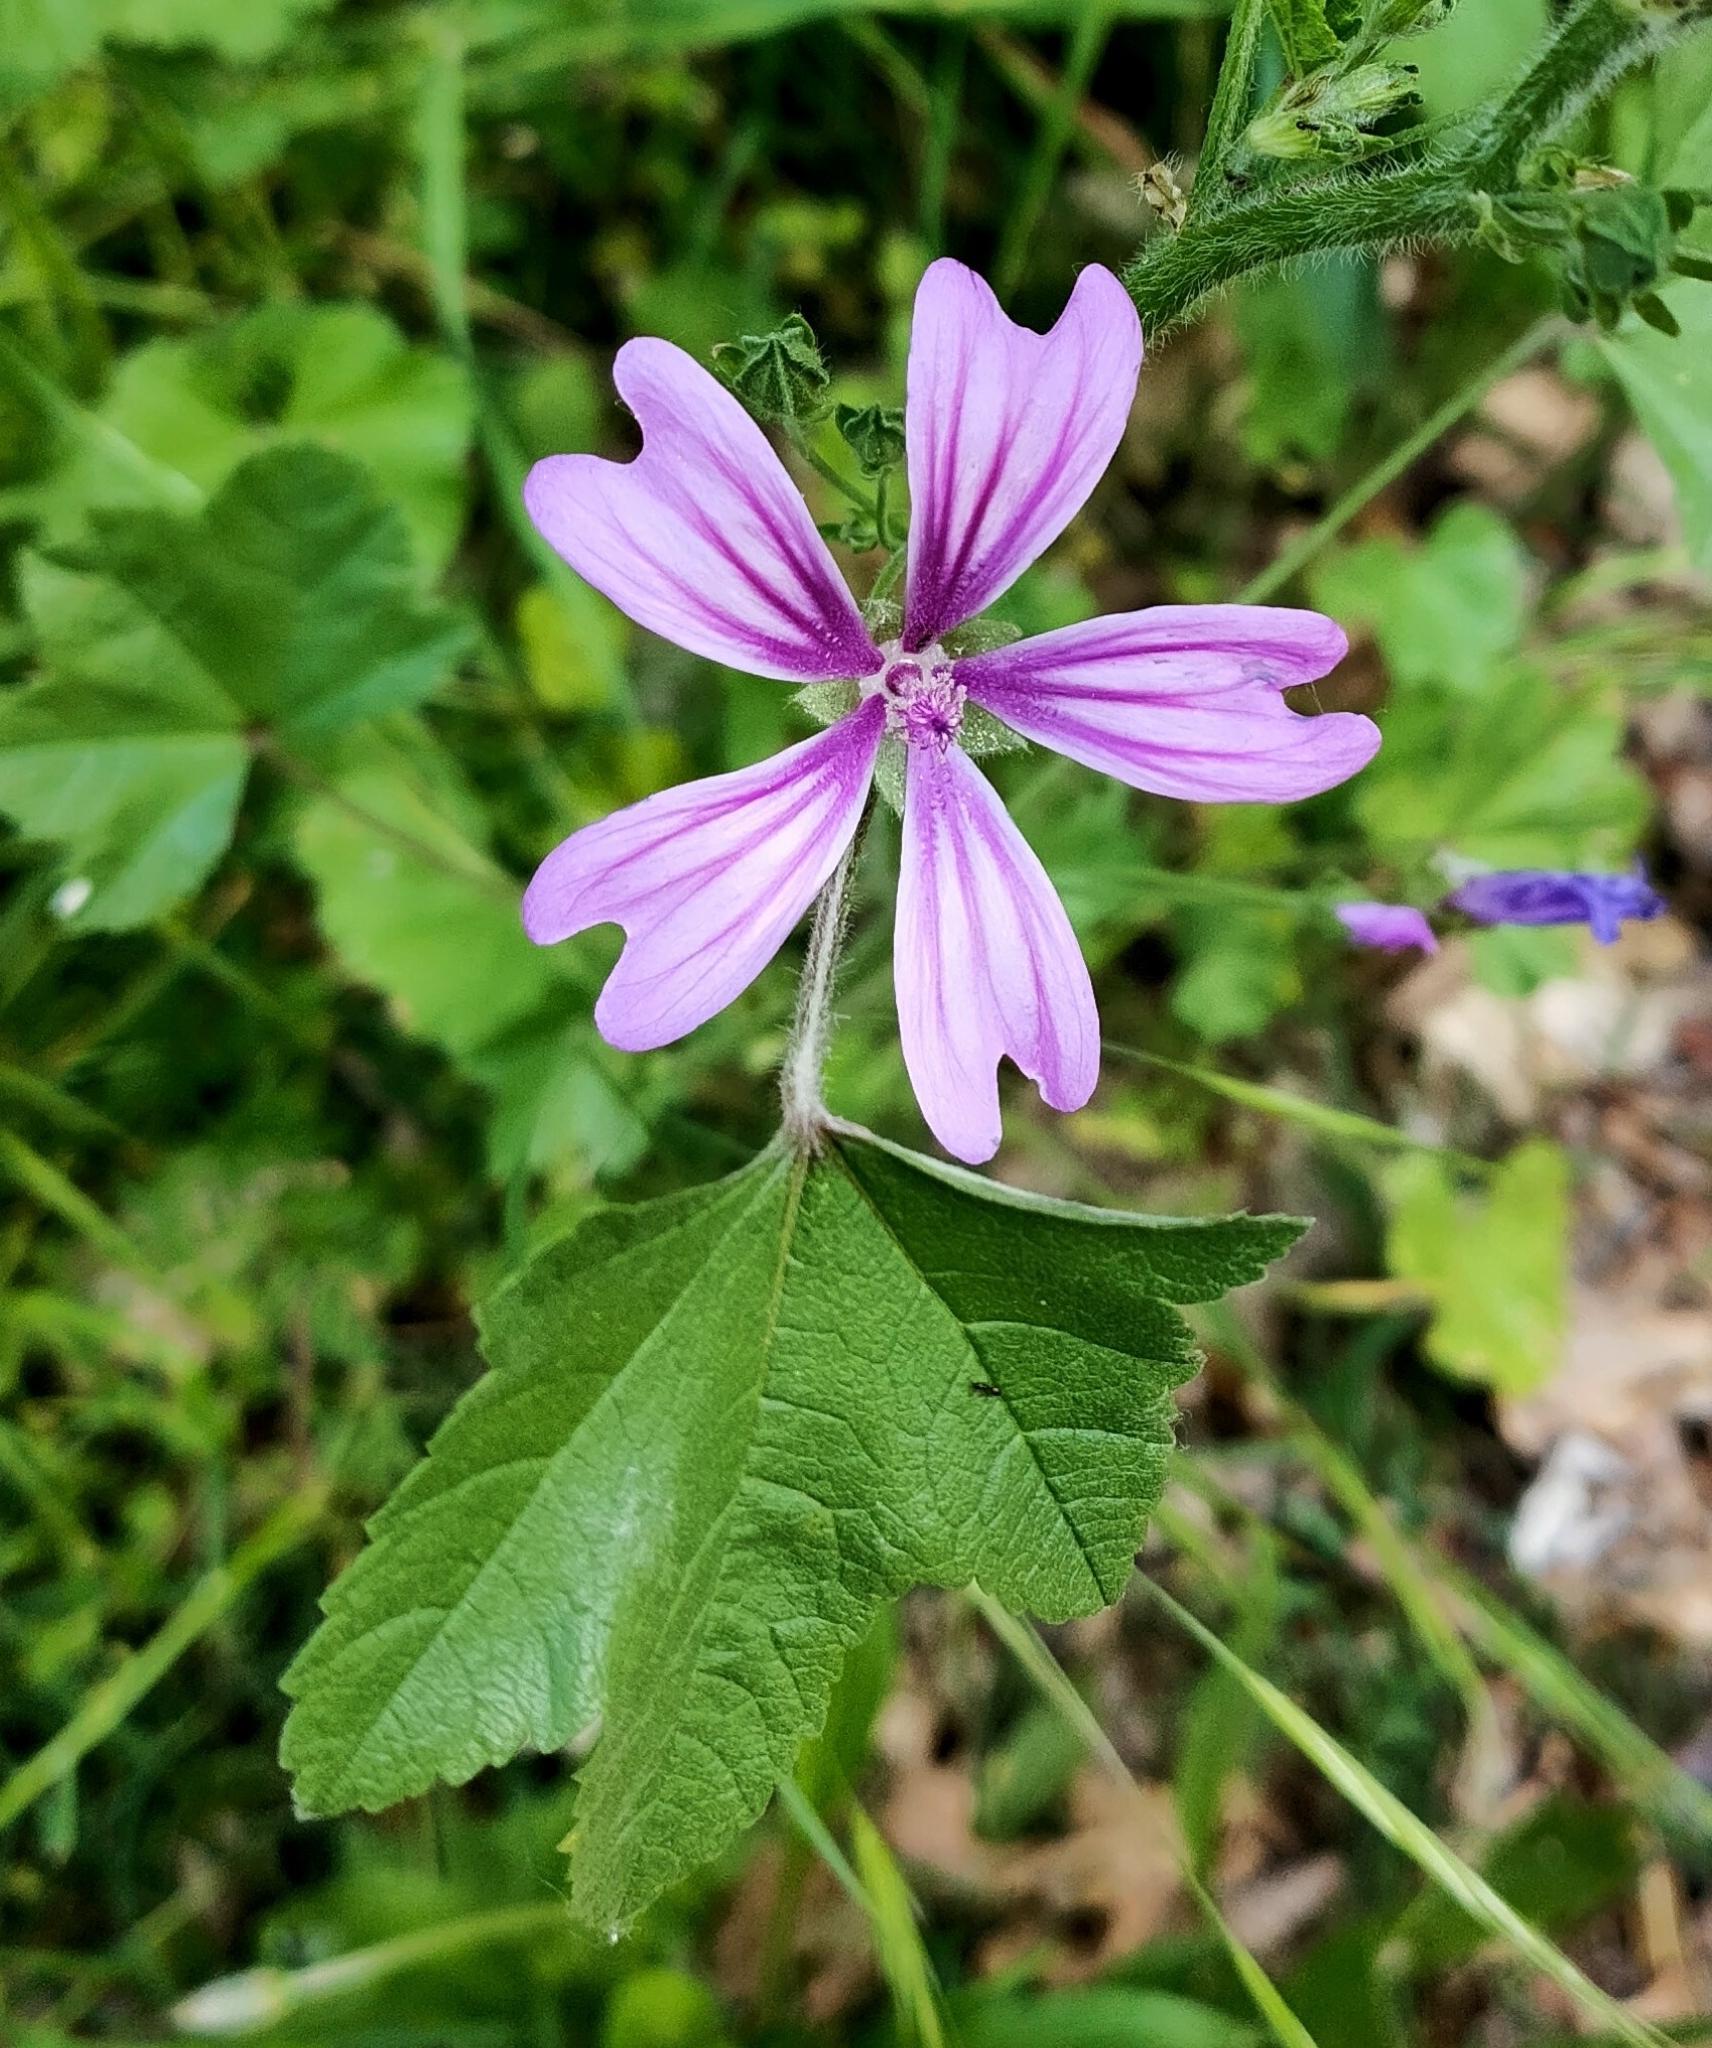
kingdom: Plantae
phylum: Tracheophyta
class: Magnoliopsida
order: Malvales
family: Malvaceae
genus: Malva
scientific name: Malva sylvestris
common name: Common mallow
